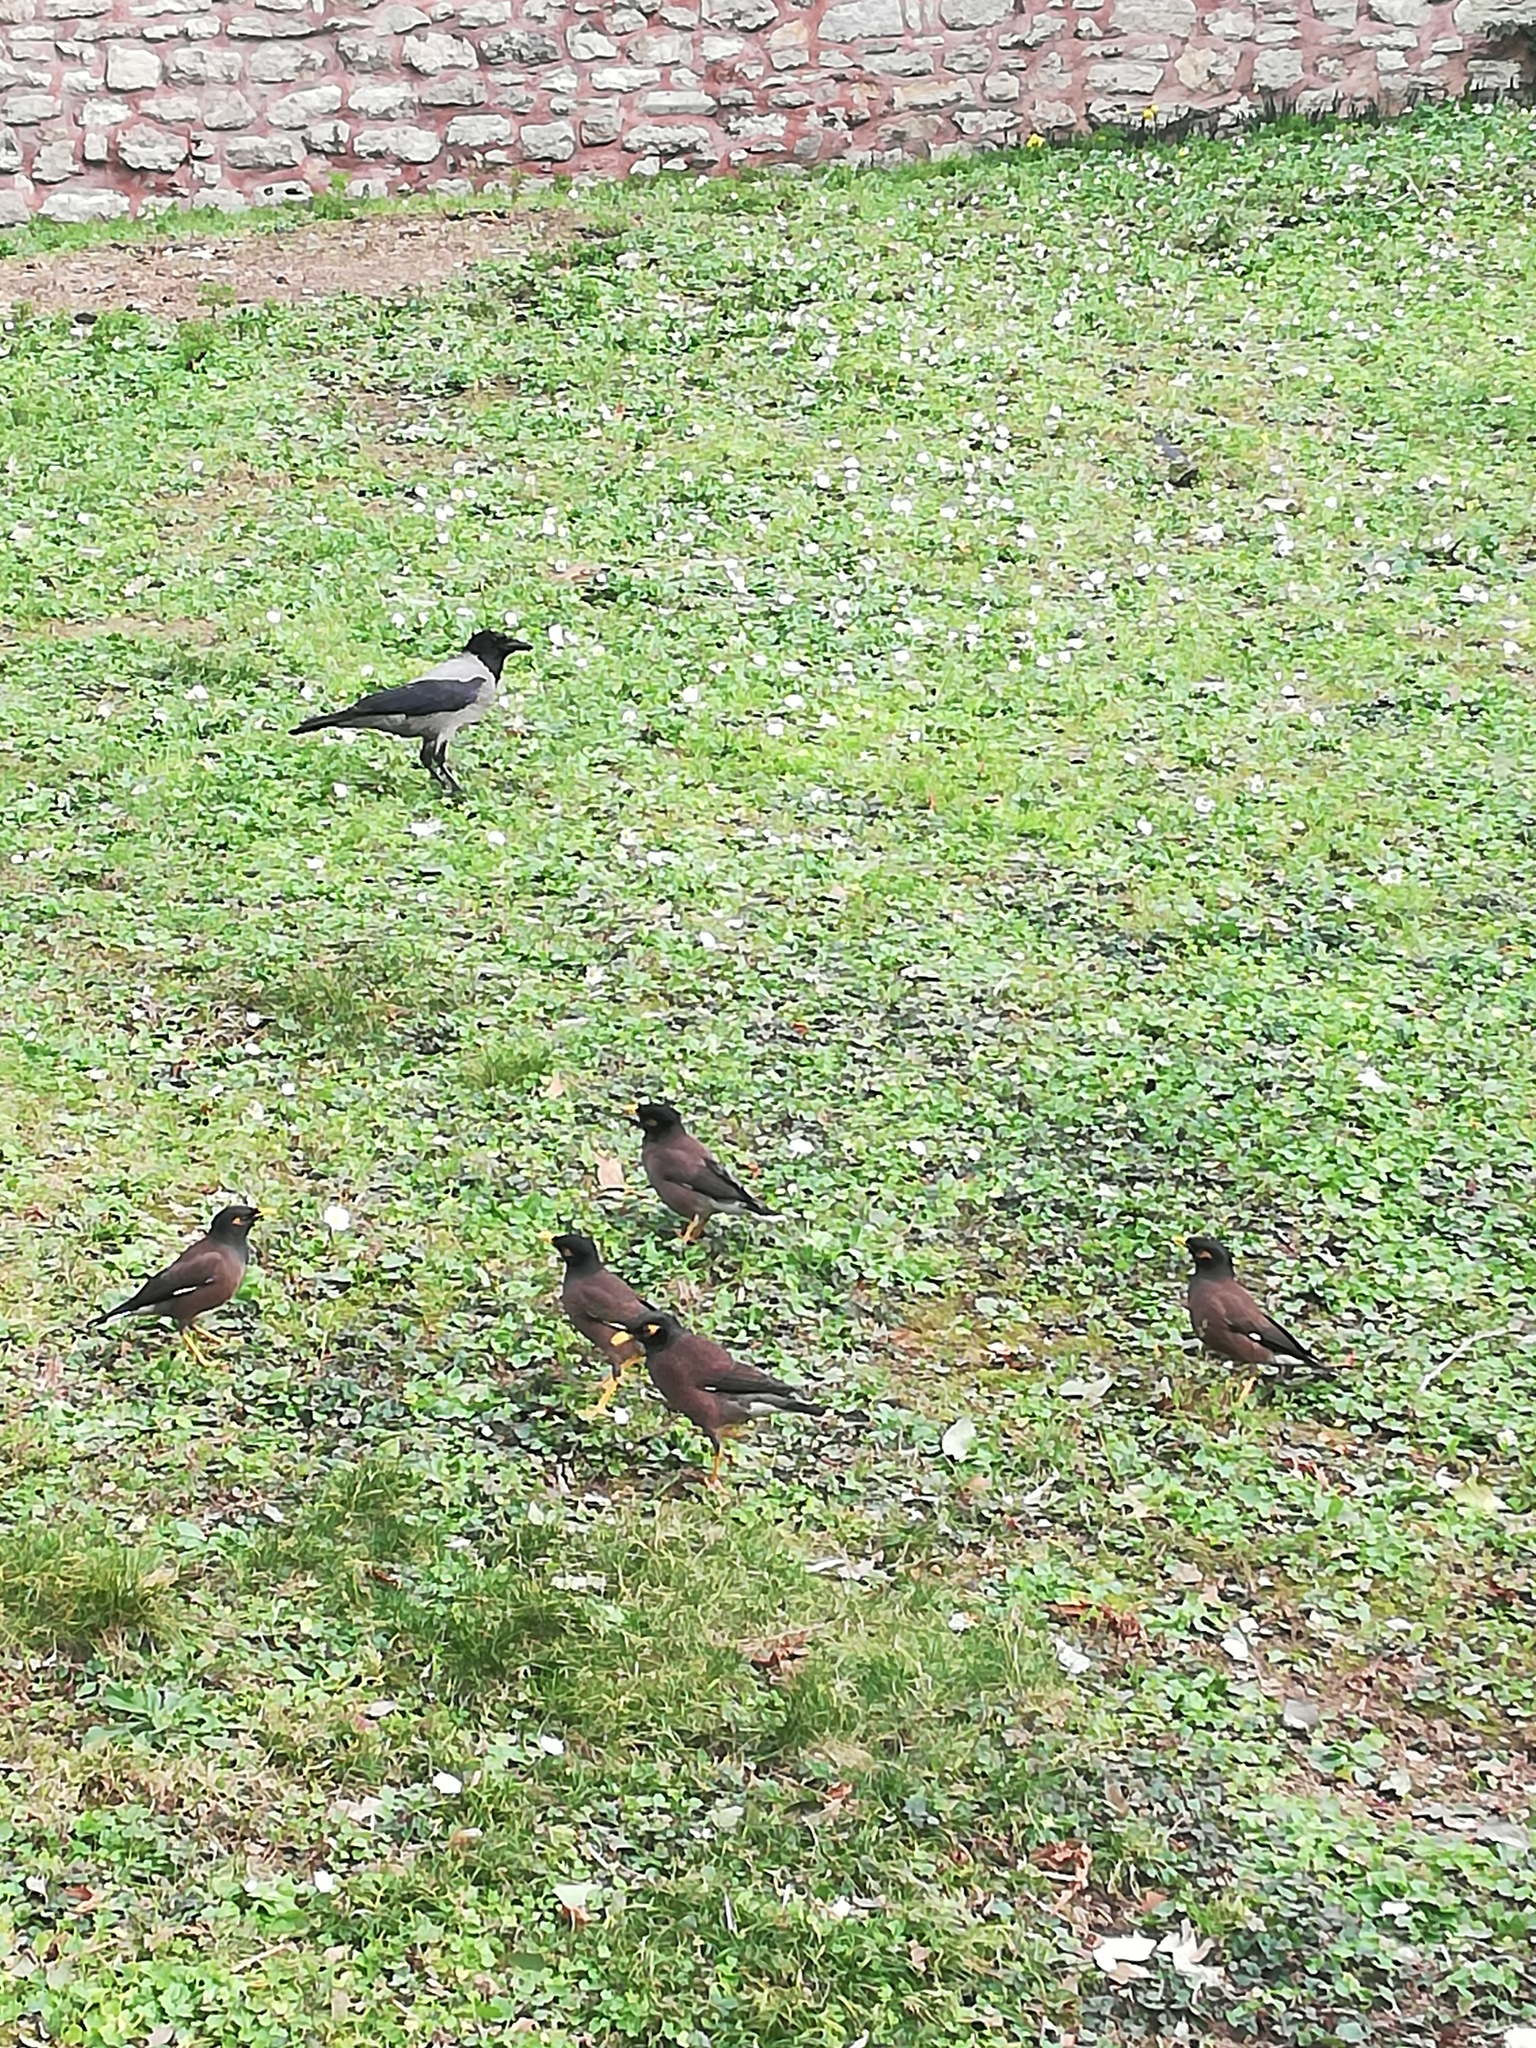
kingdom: Animalia
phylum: Chordata
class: Aves
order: Passeriformes
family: Sturnidae
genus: Acridotheres
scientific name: Acridotheres tristis
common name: Common myna
